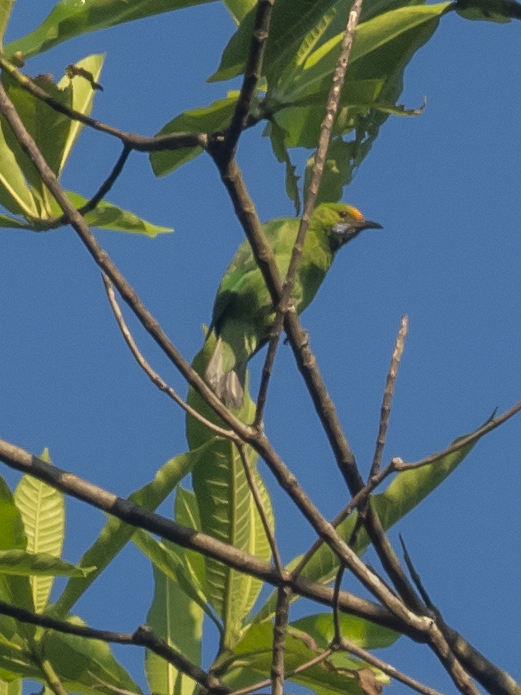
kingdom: Animalia
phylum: Chordata
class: Aves
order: Passeriformes
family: Chloropseidae
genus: Chloropsis
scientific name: Chloropsis aurifrons
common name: Golden-fronted leafbird
